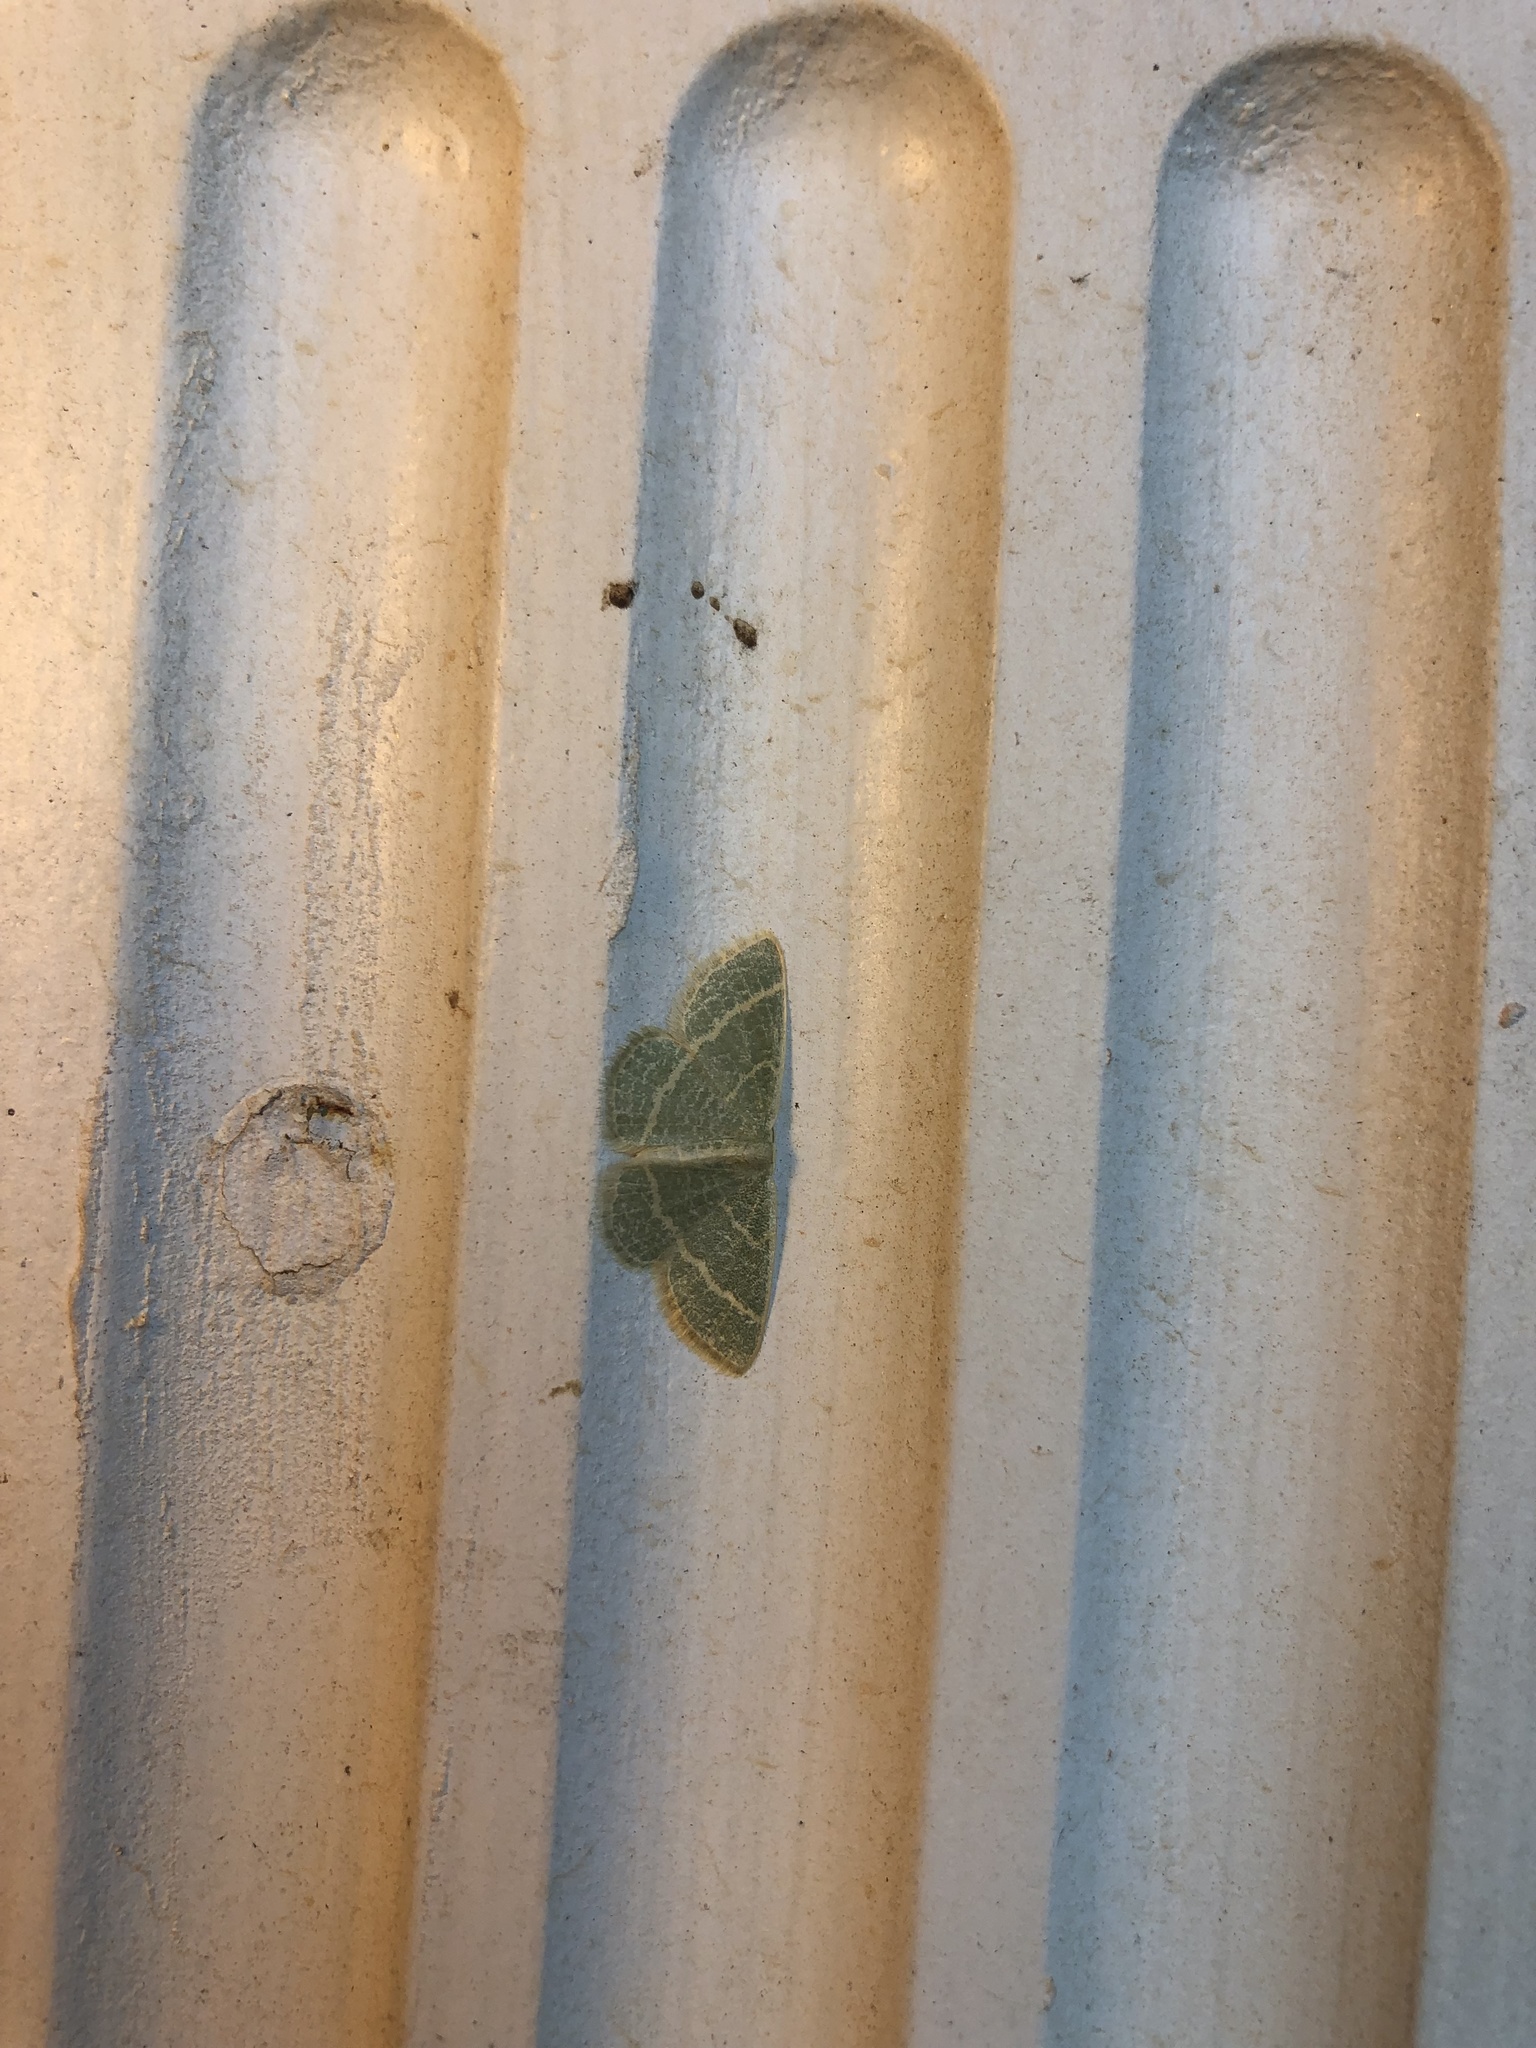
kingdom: Animalia
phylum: Arthropoda
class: Insecta
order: Lepidoptera
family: Geometridae
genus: Chlorochlamys
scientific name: Chlorochlamys chloroleucaria
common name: Blackberry looper
